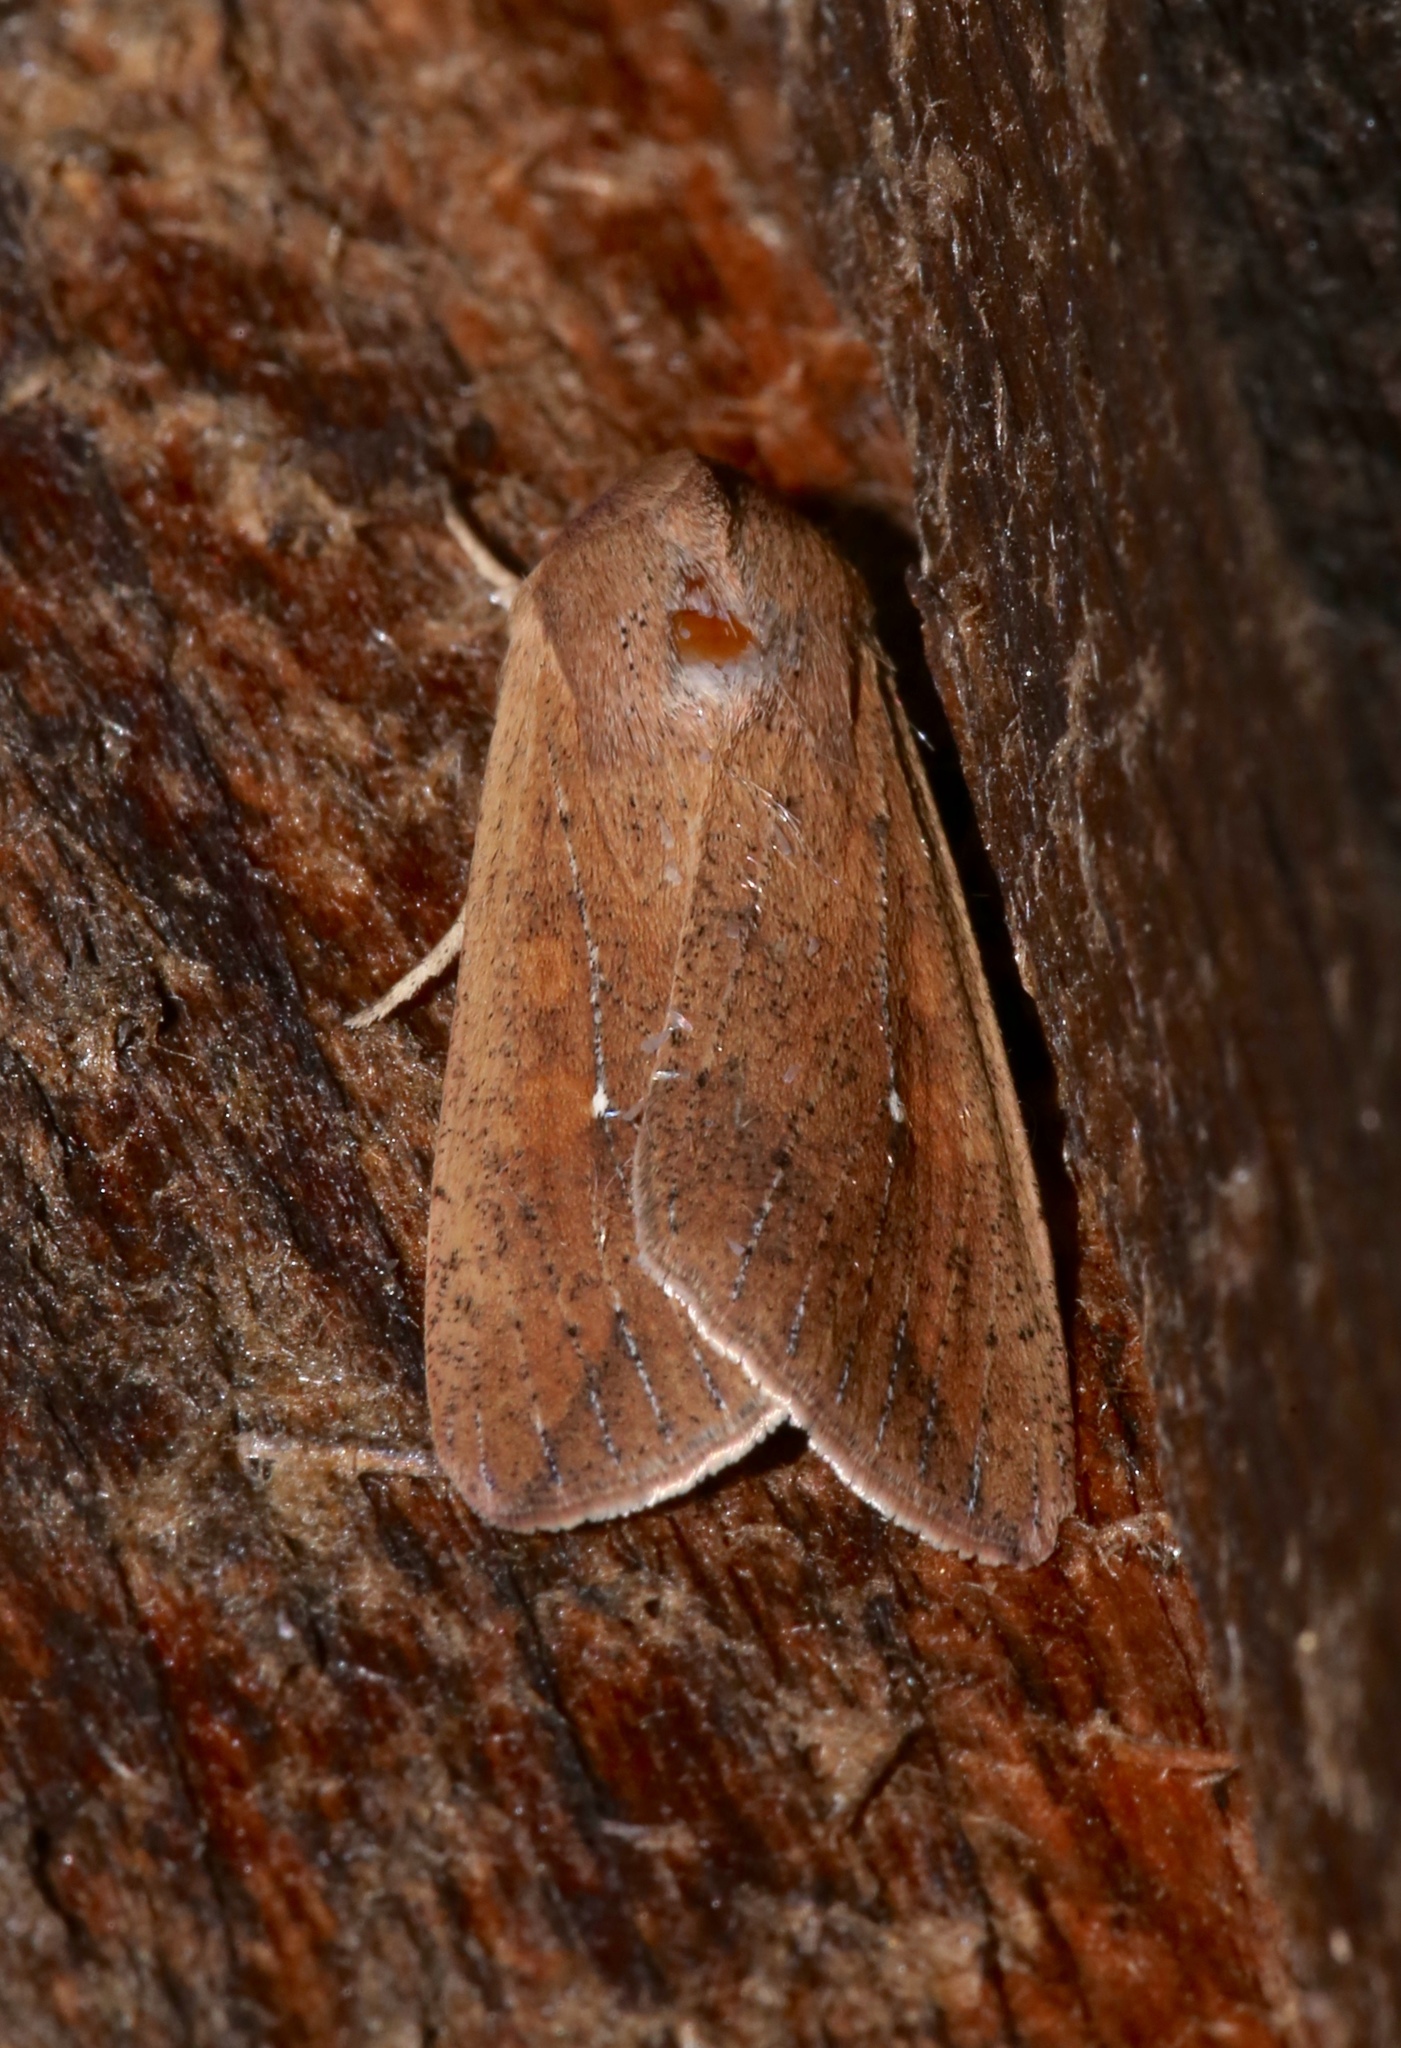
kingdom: Animalia
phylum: Arthropoda
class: Insecta
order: Lepidoptera
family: Noctuidae
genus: Mythimna
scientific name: Mythimna unipuncta
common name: White-speck
